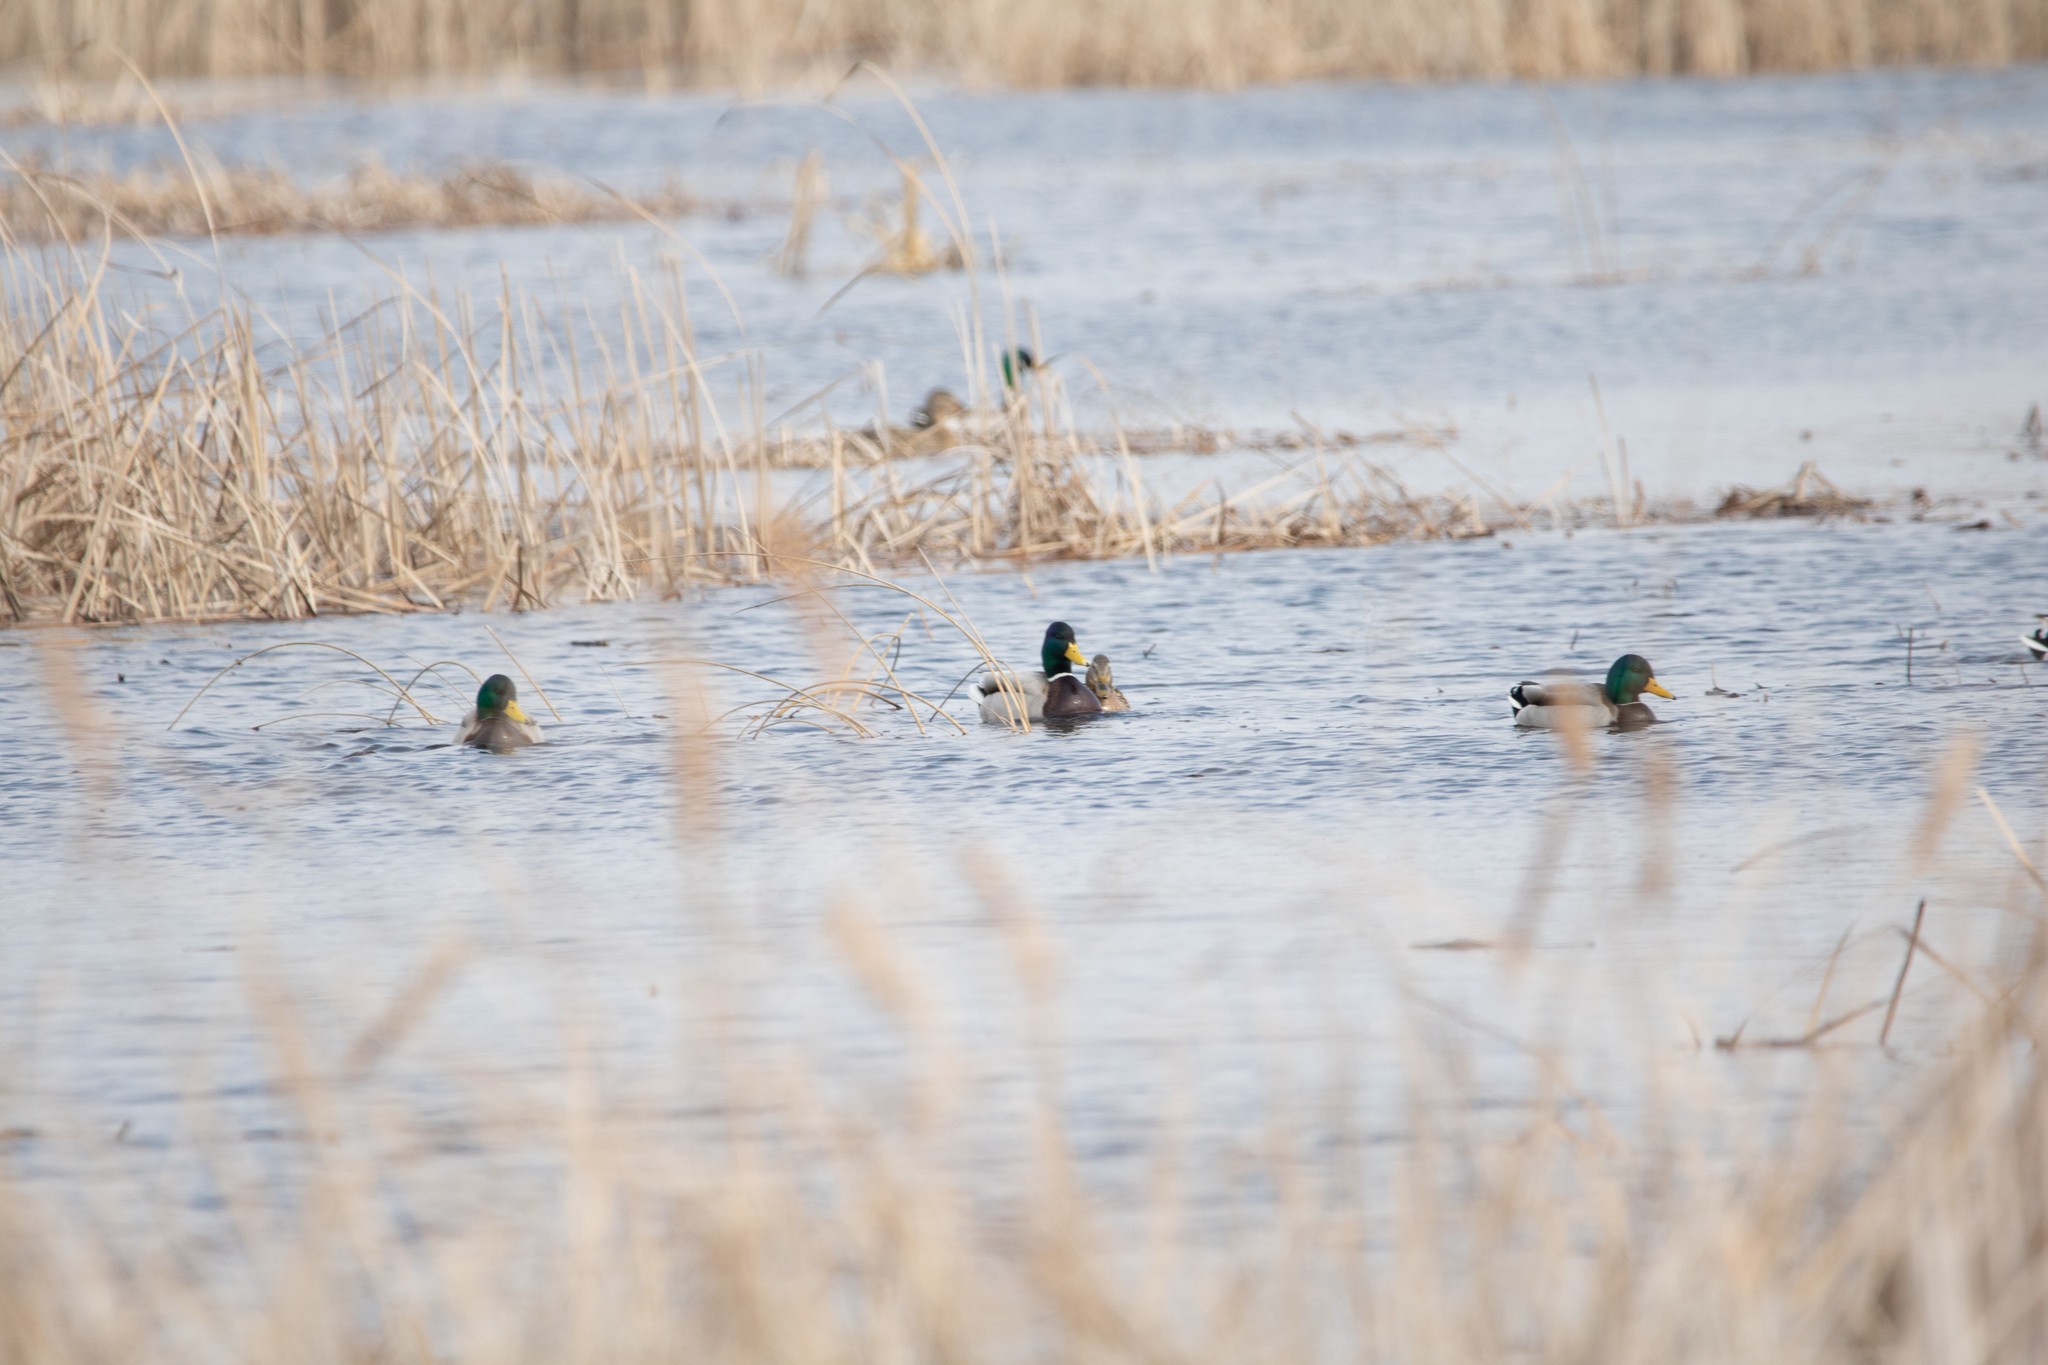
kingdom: Animalia
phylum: Chordata
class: Aves
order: Anseriformes
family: Anatidae
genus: Anas
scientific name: Anas platyrhynchos
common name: Mallard
